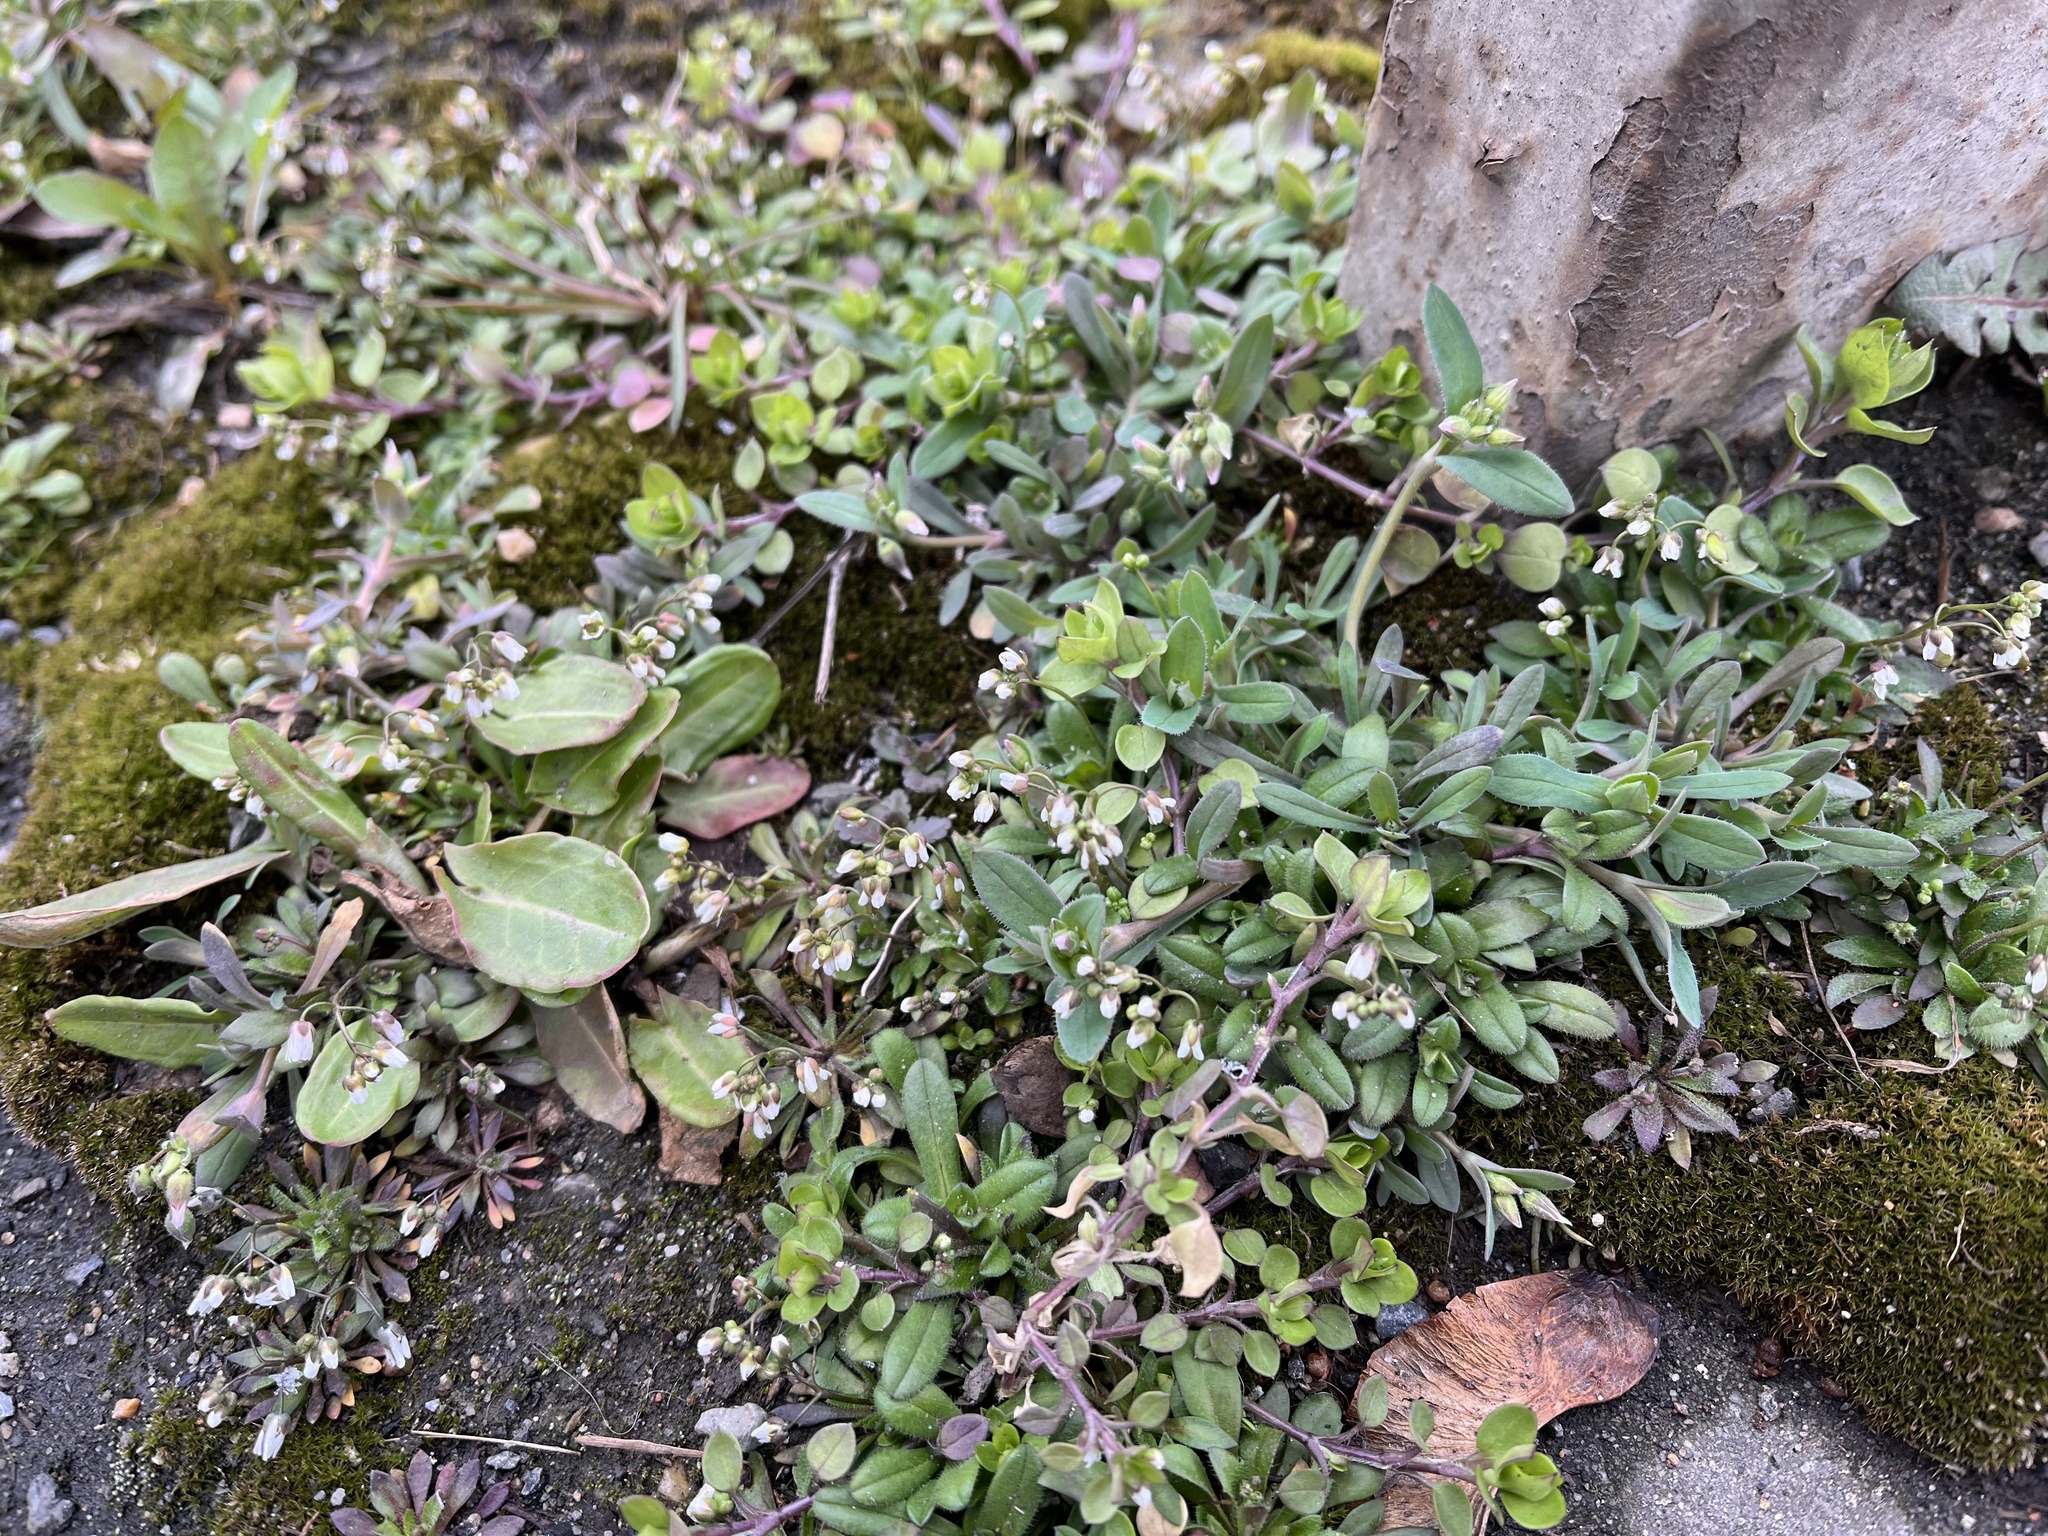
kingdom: Plantae
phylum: Tracheophyta
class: Magnoliopsida
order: Brassicales
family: Brassicaceae
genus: Draba
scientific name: Draba verna
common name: Spring draba
